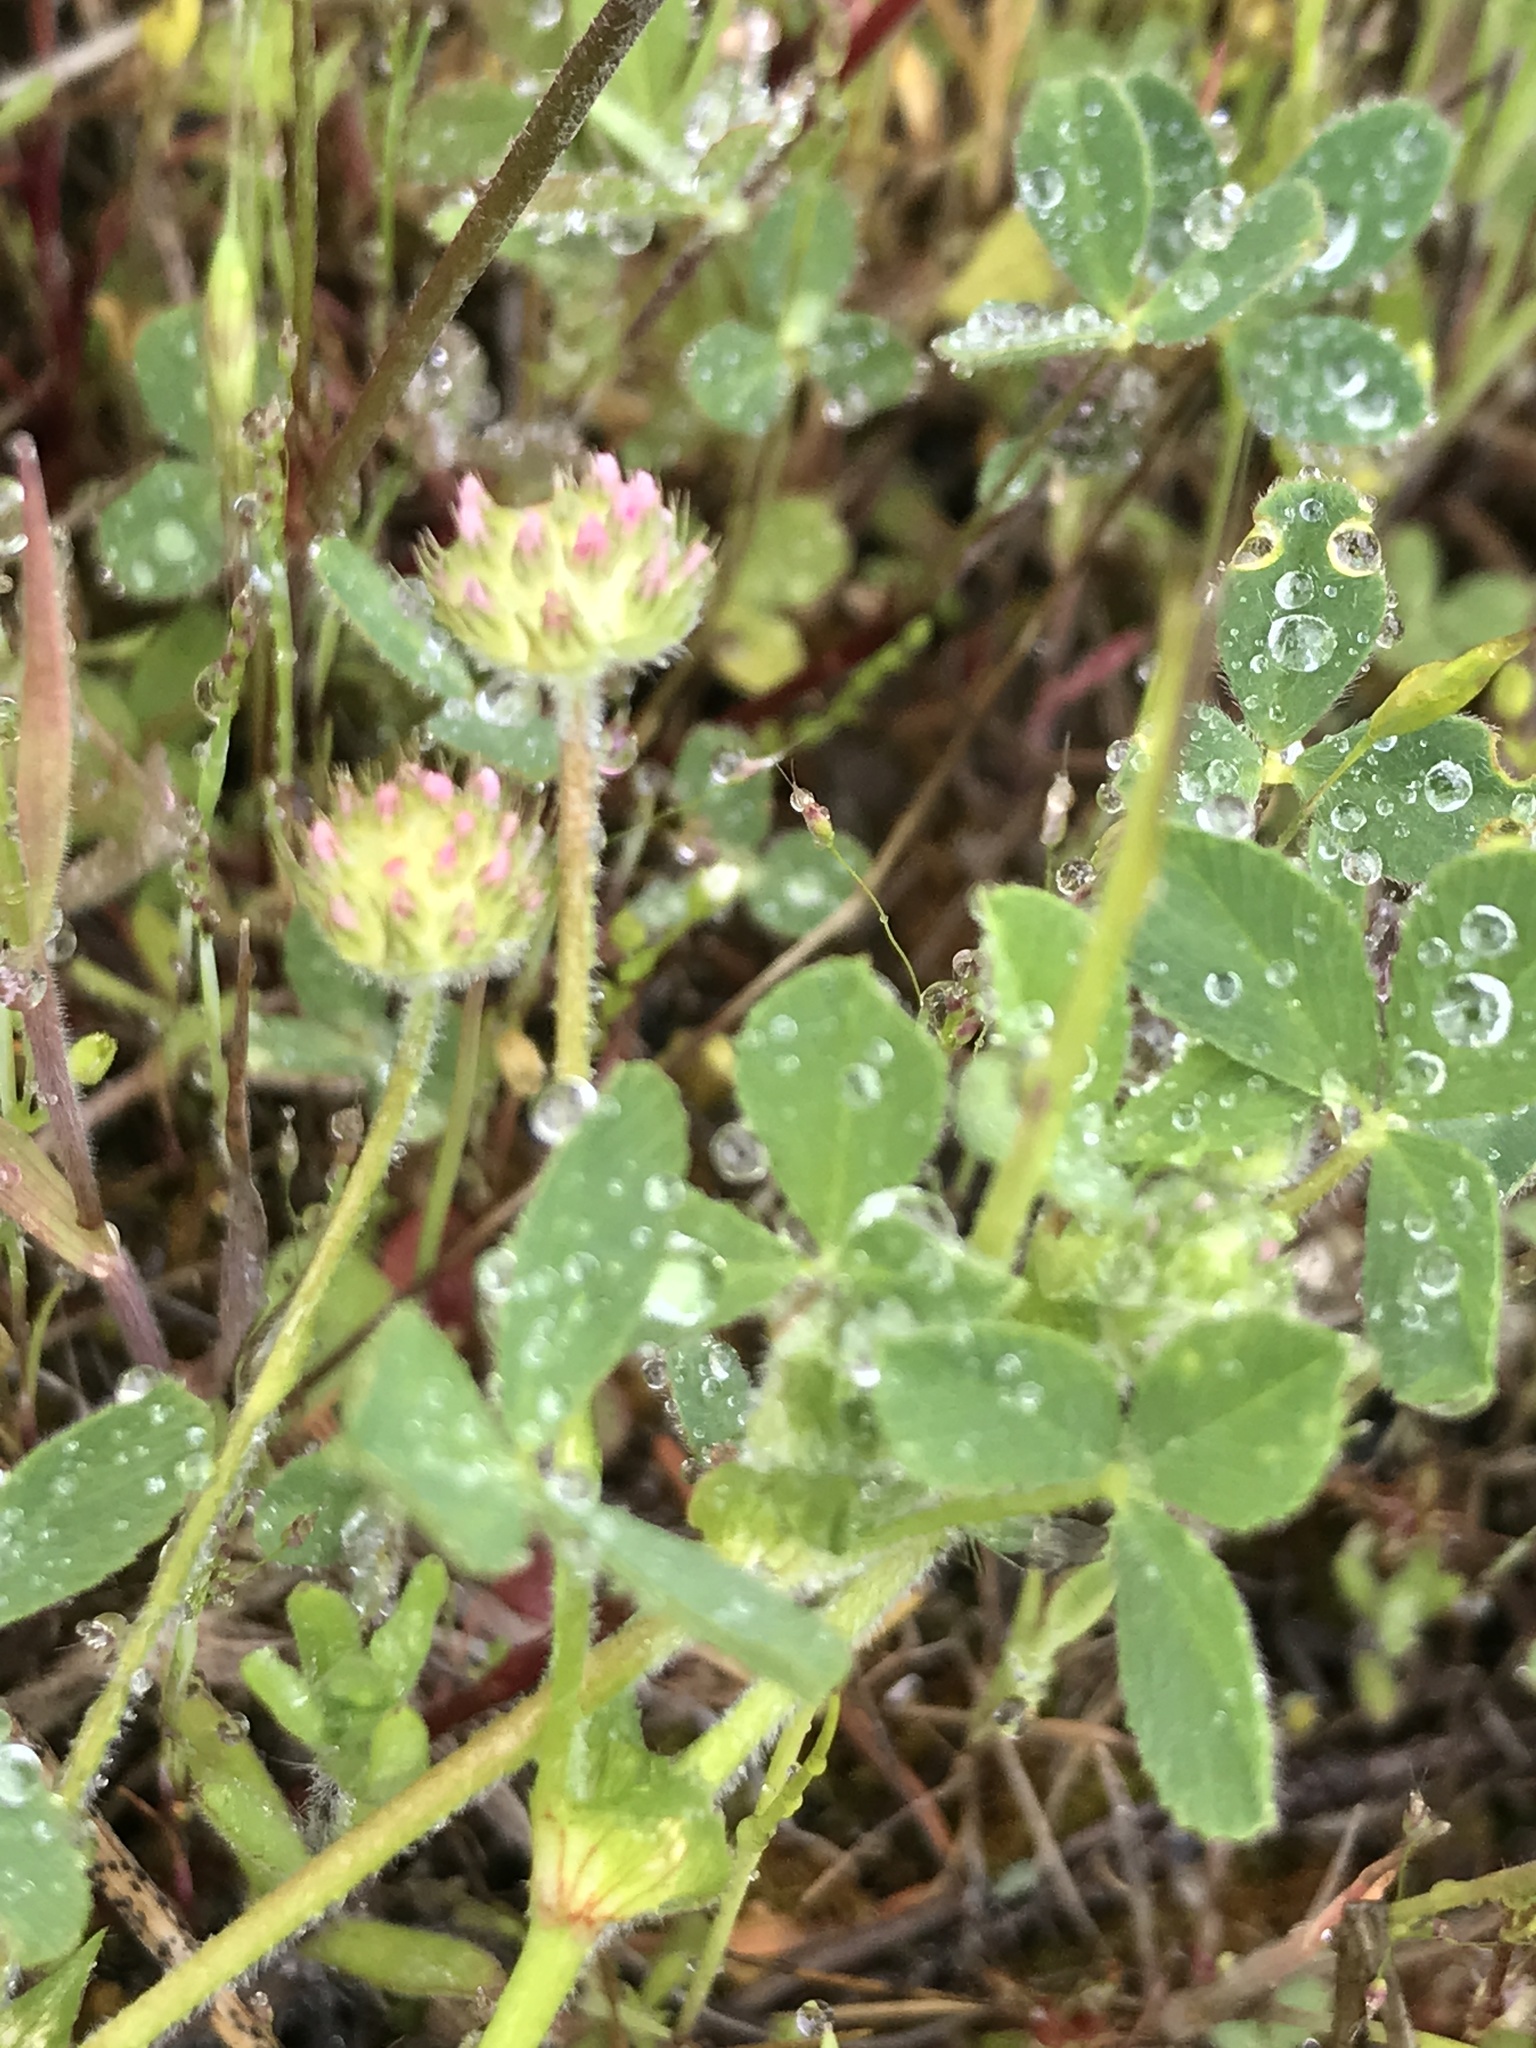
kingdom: Plantae
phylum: Tracheophyta
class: Magnoliopsida
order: Fabales
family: Fabaceae
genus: Trifolium
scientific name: Trifolium microcephalum
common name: Maiden clover
